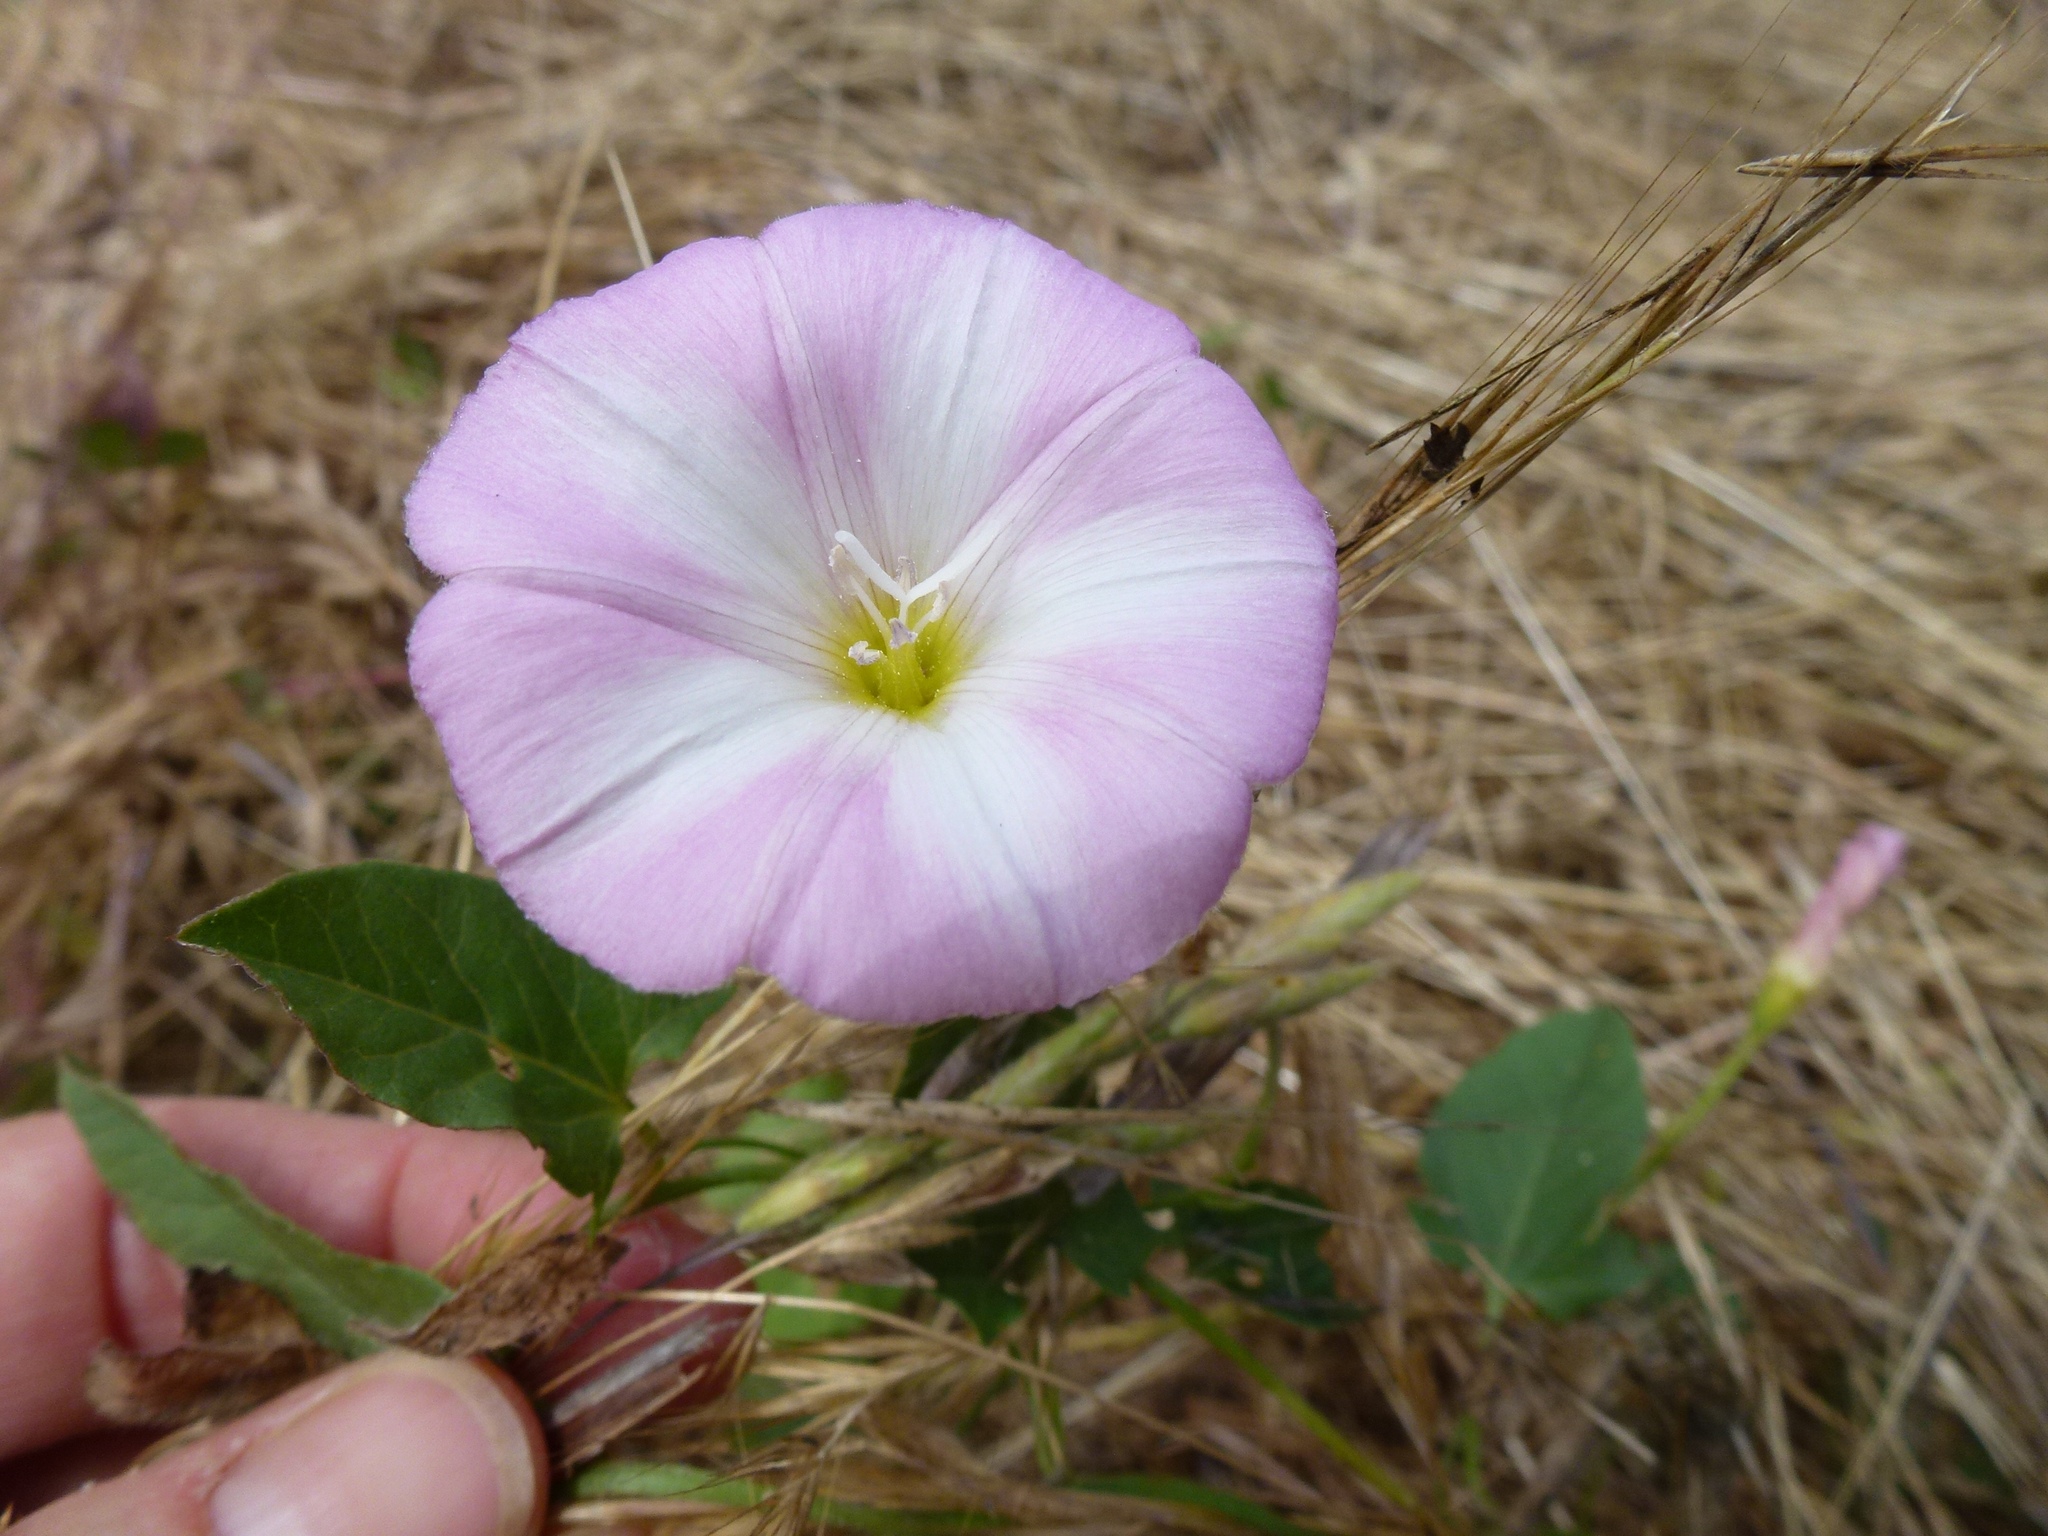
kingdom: Plantae
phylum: Tracheophyta
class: Magnoliopsida
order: Solanales
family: Convolvulaceae
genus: Convolvulus
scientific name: Convolvulus arvensis
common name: Field bindweed
